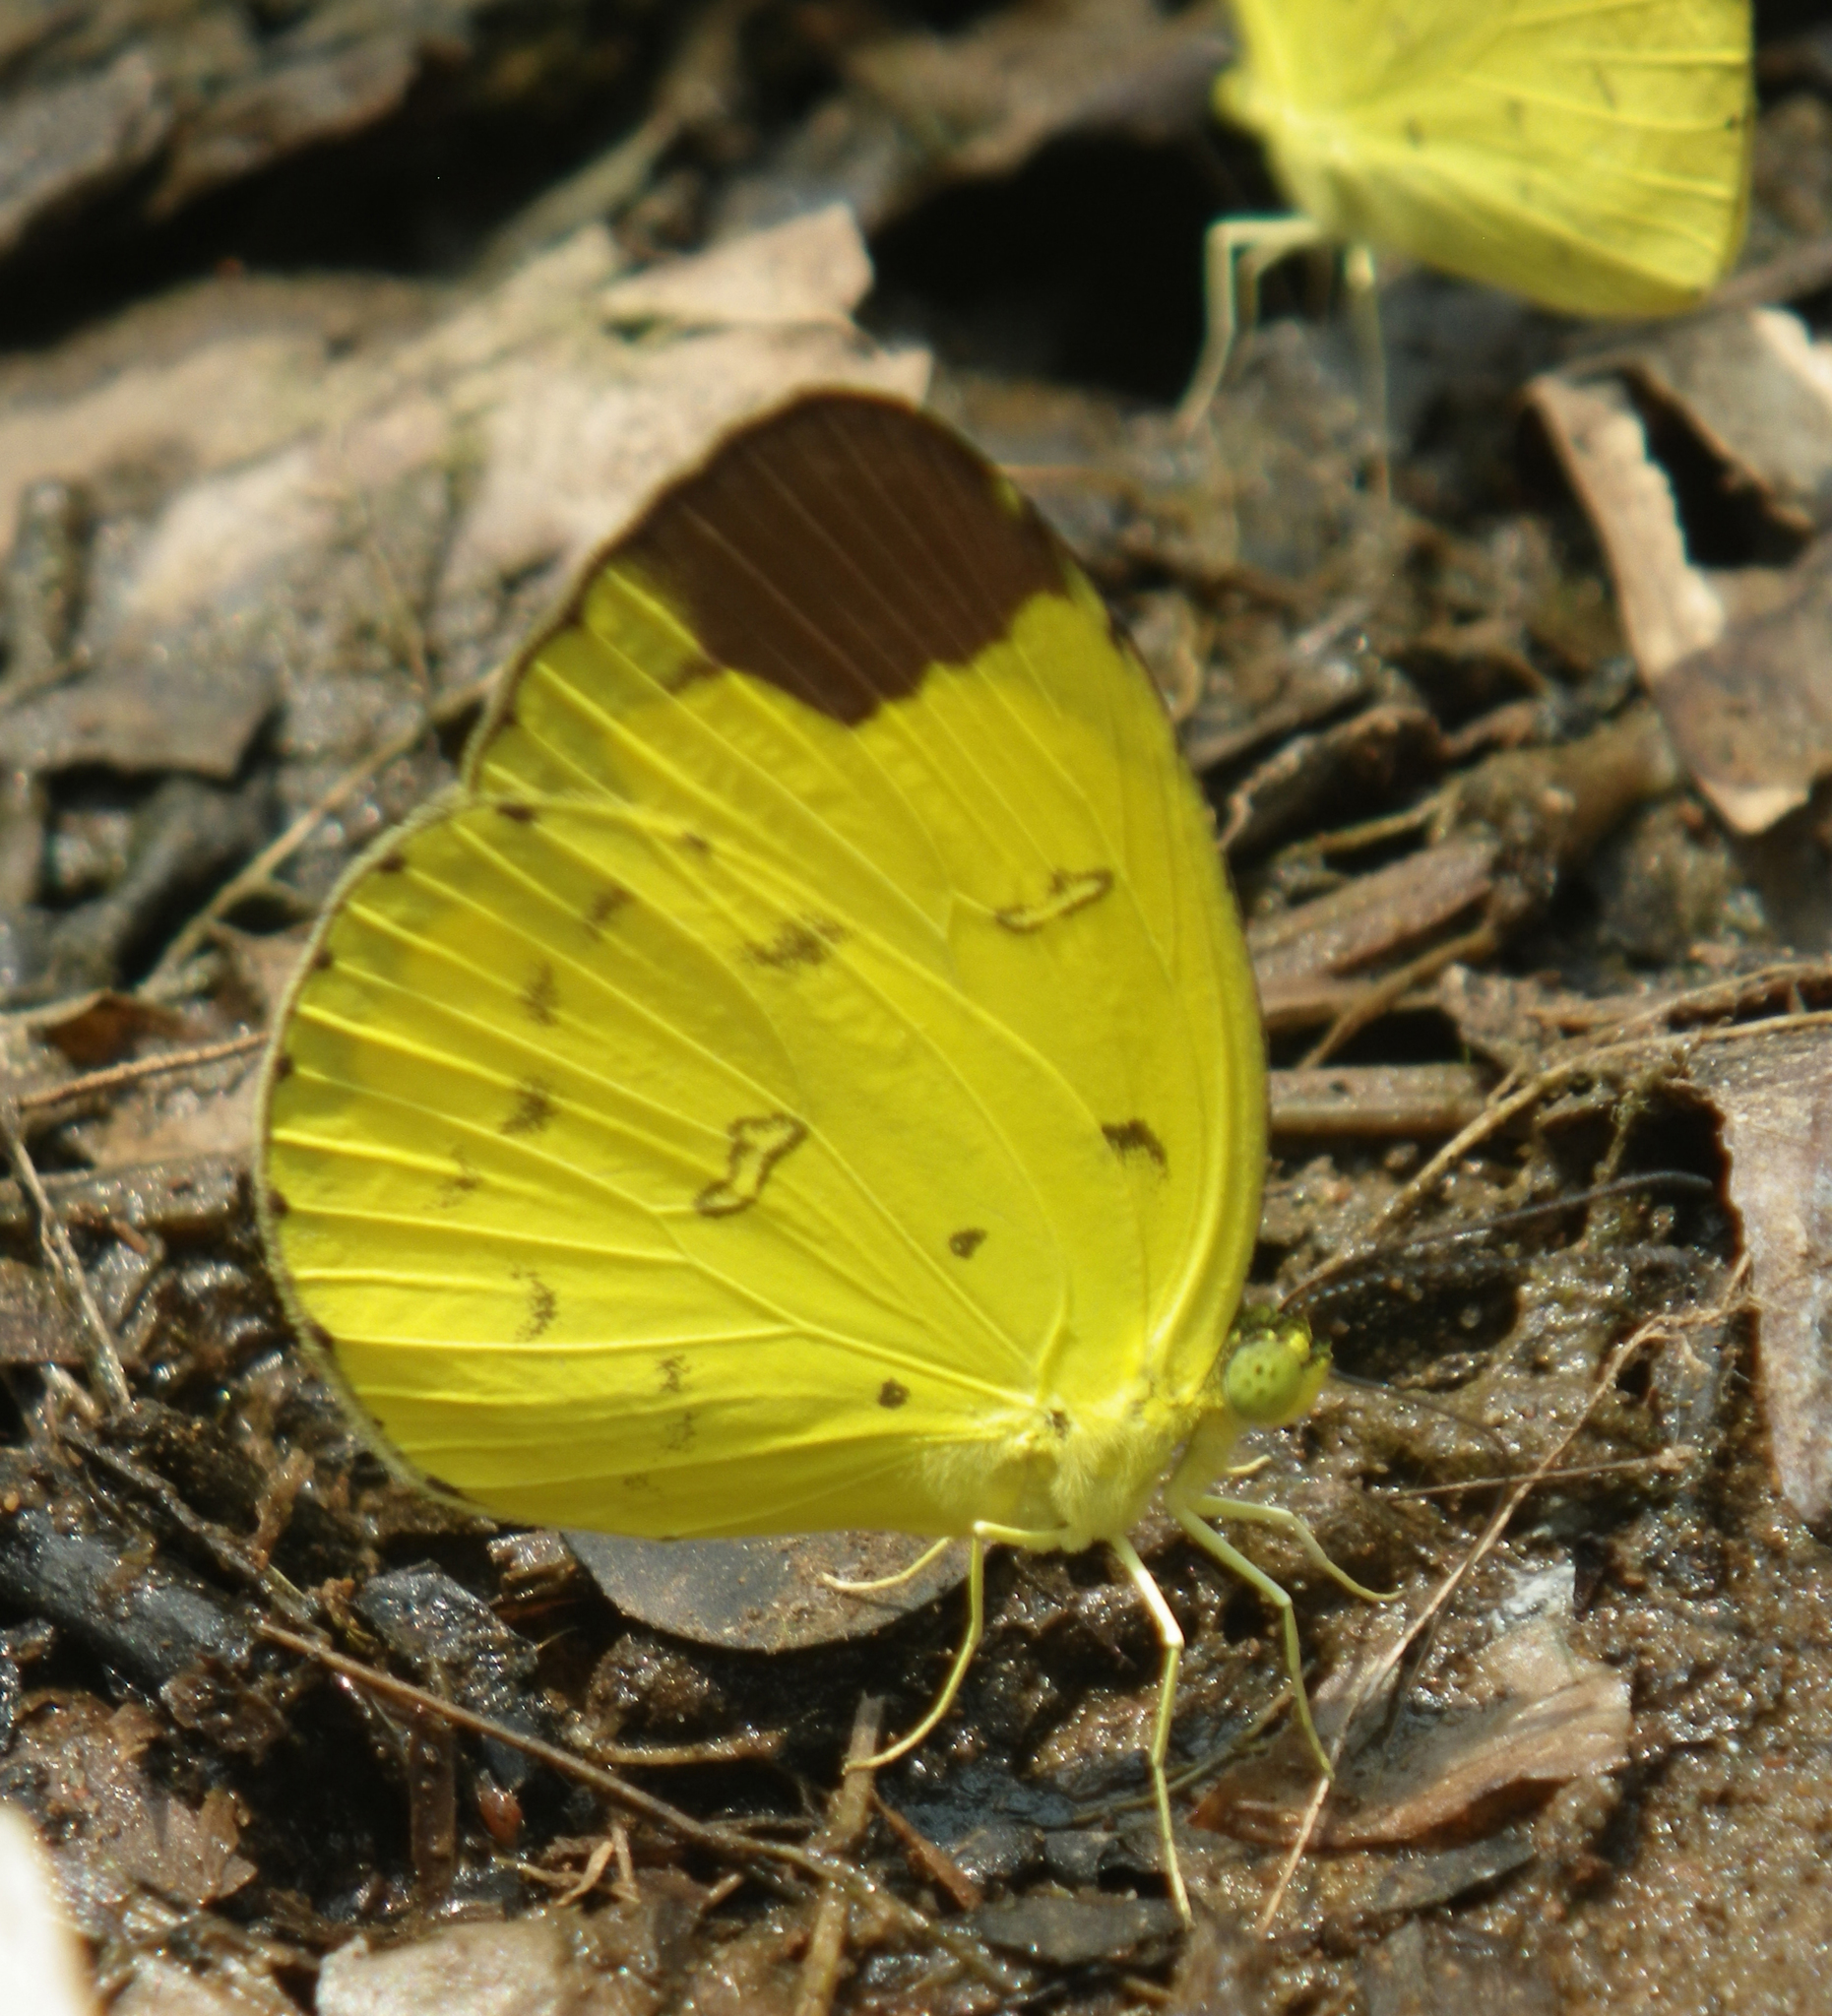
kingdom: Animalia
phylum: Arthropoda
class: Insecta
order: Lepidoptera
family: Pieridae
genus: Eurema
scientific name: Eurema sari
